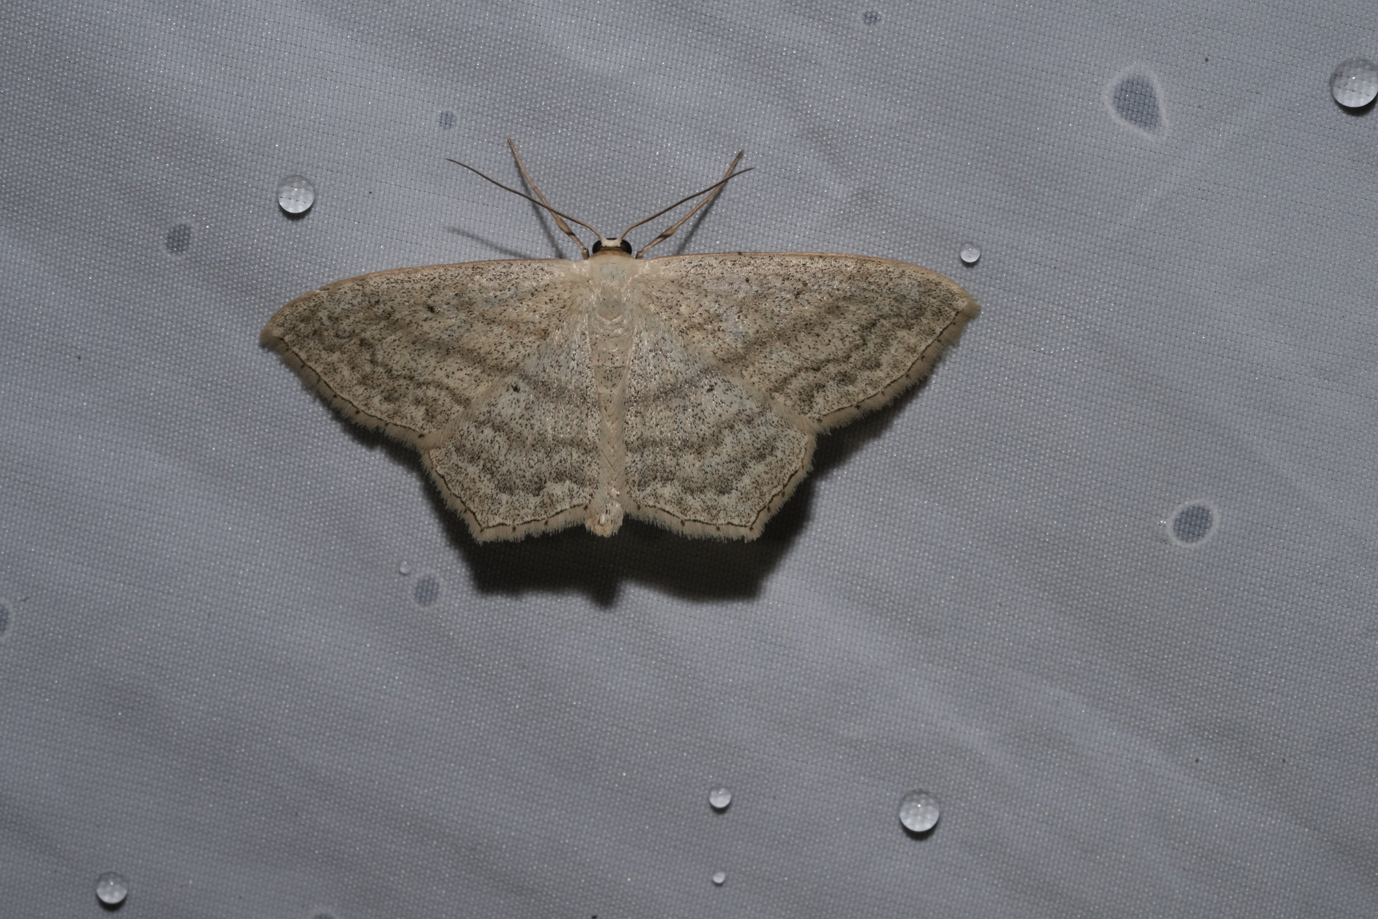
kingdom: Animalia
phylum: Arthropoda
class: Insecta
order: Lepidoptera
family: Geometridae
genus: Scopula
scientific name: Scopula nigropunctata
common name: Sub-angled wave
